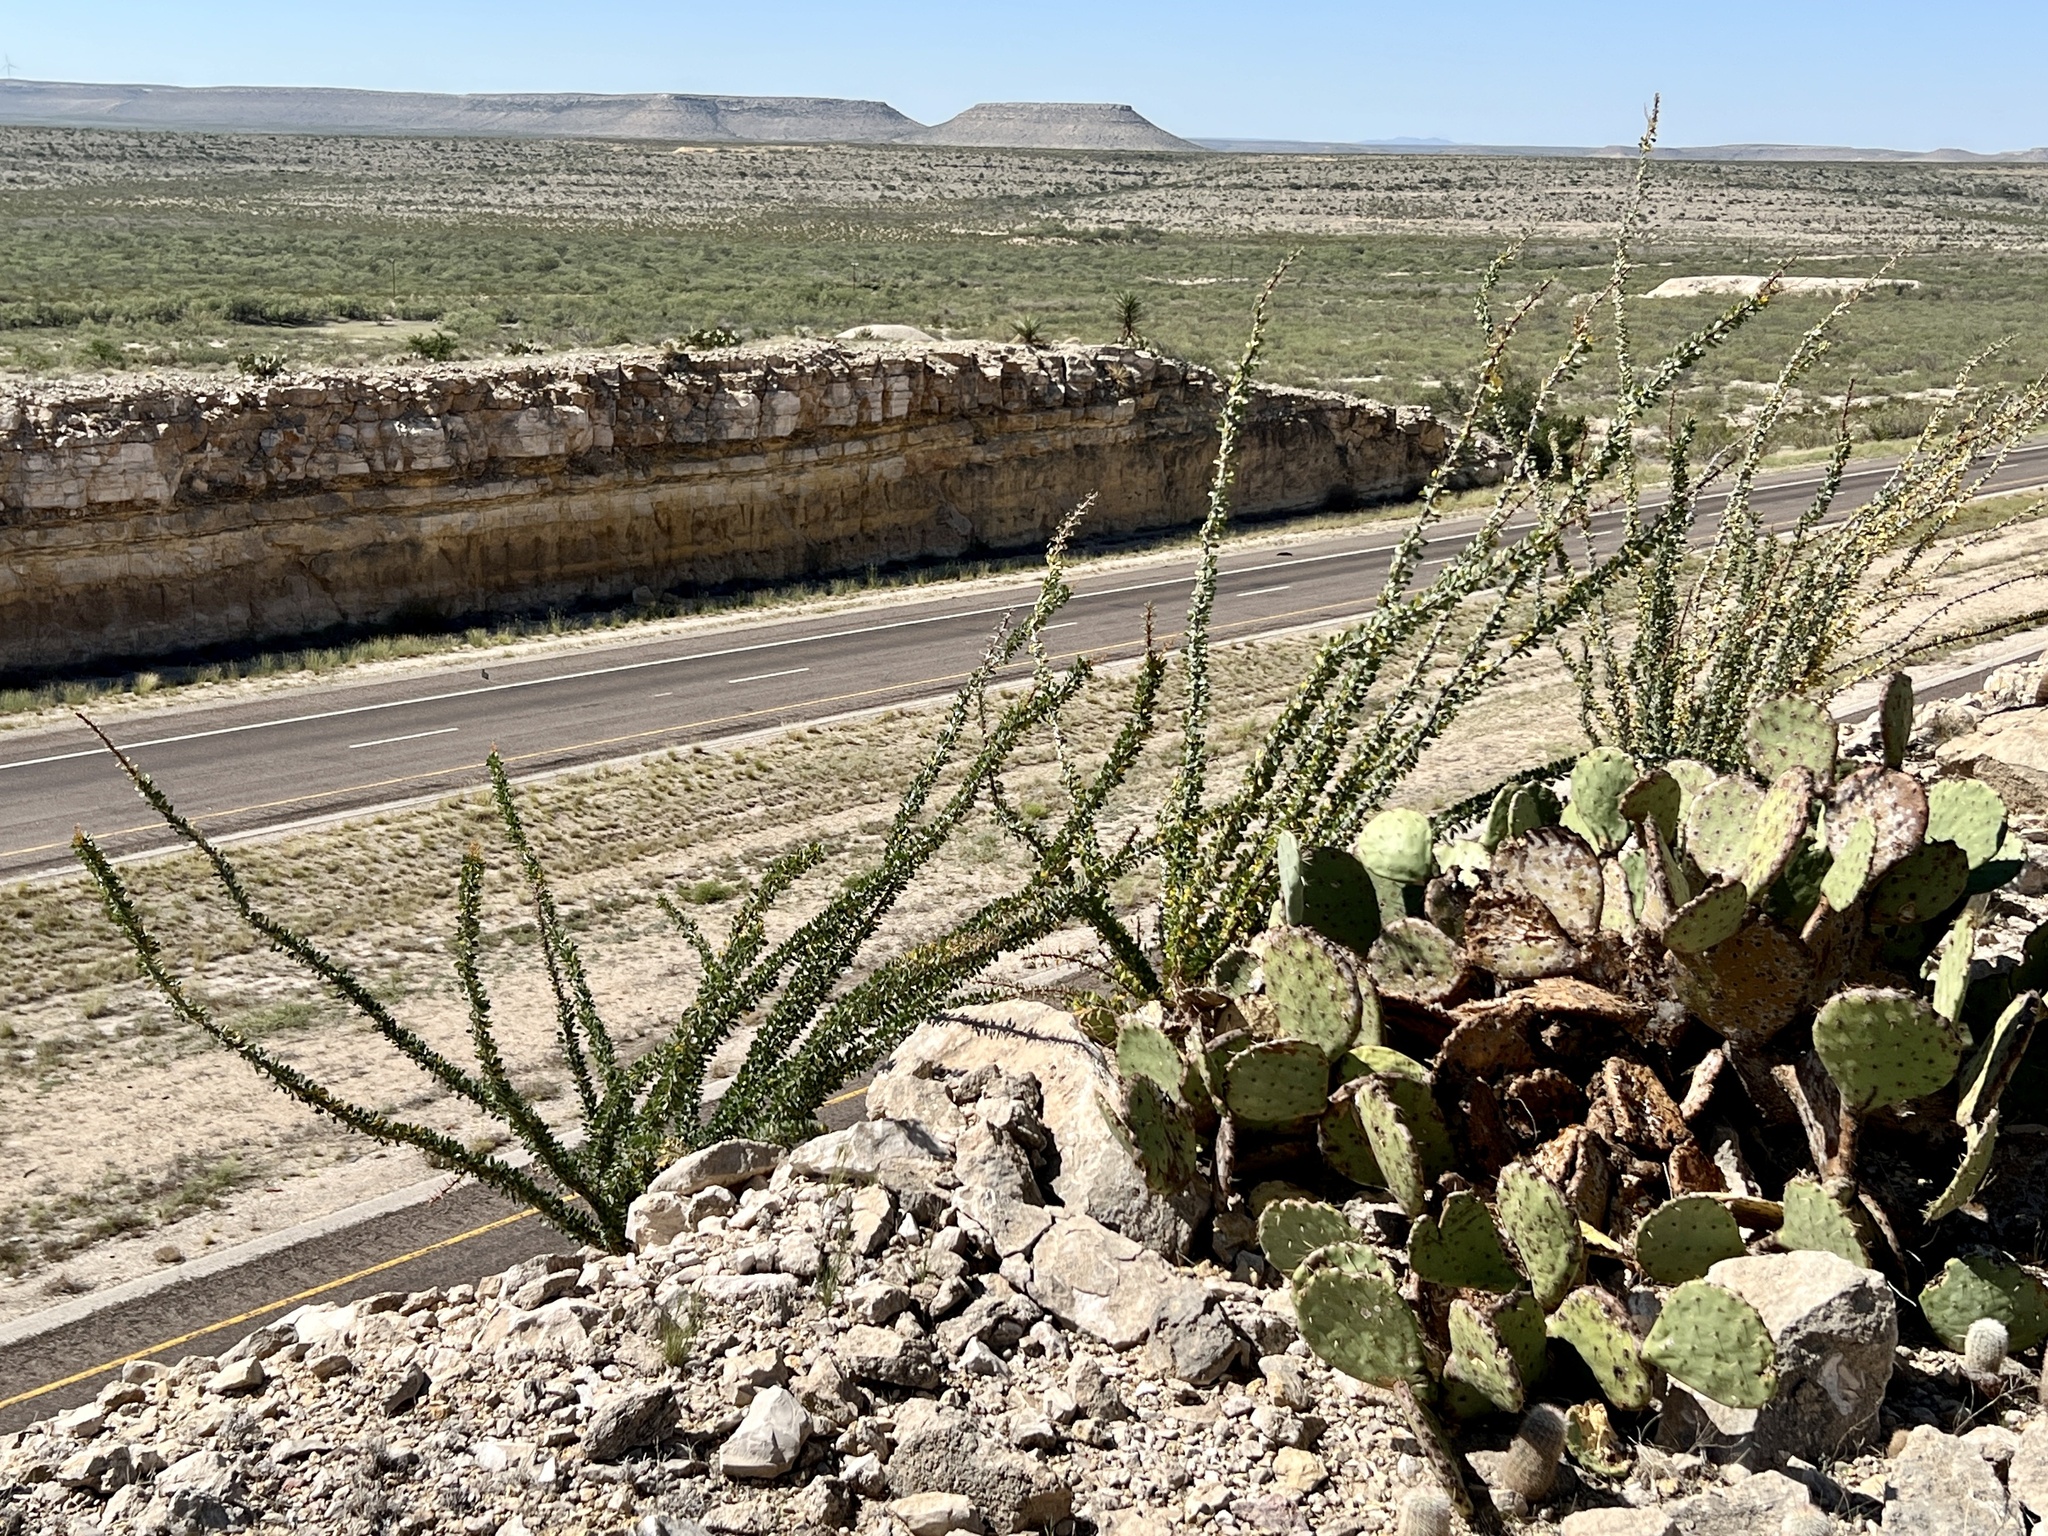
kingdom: Plantae
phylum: Tracheophyta
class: Magnoliopsida
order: Ericales
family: Fouquieriaceae
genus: Fouquieria
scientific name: Fouquieria splendens
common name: Vine-cactus
